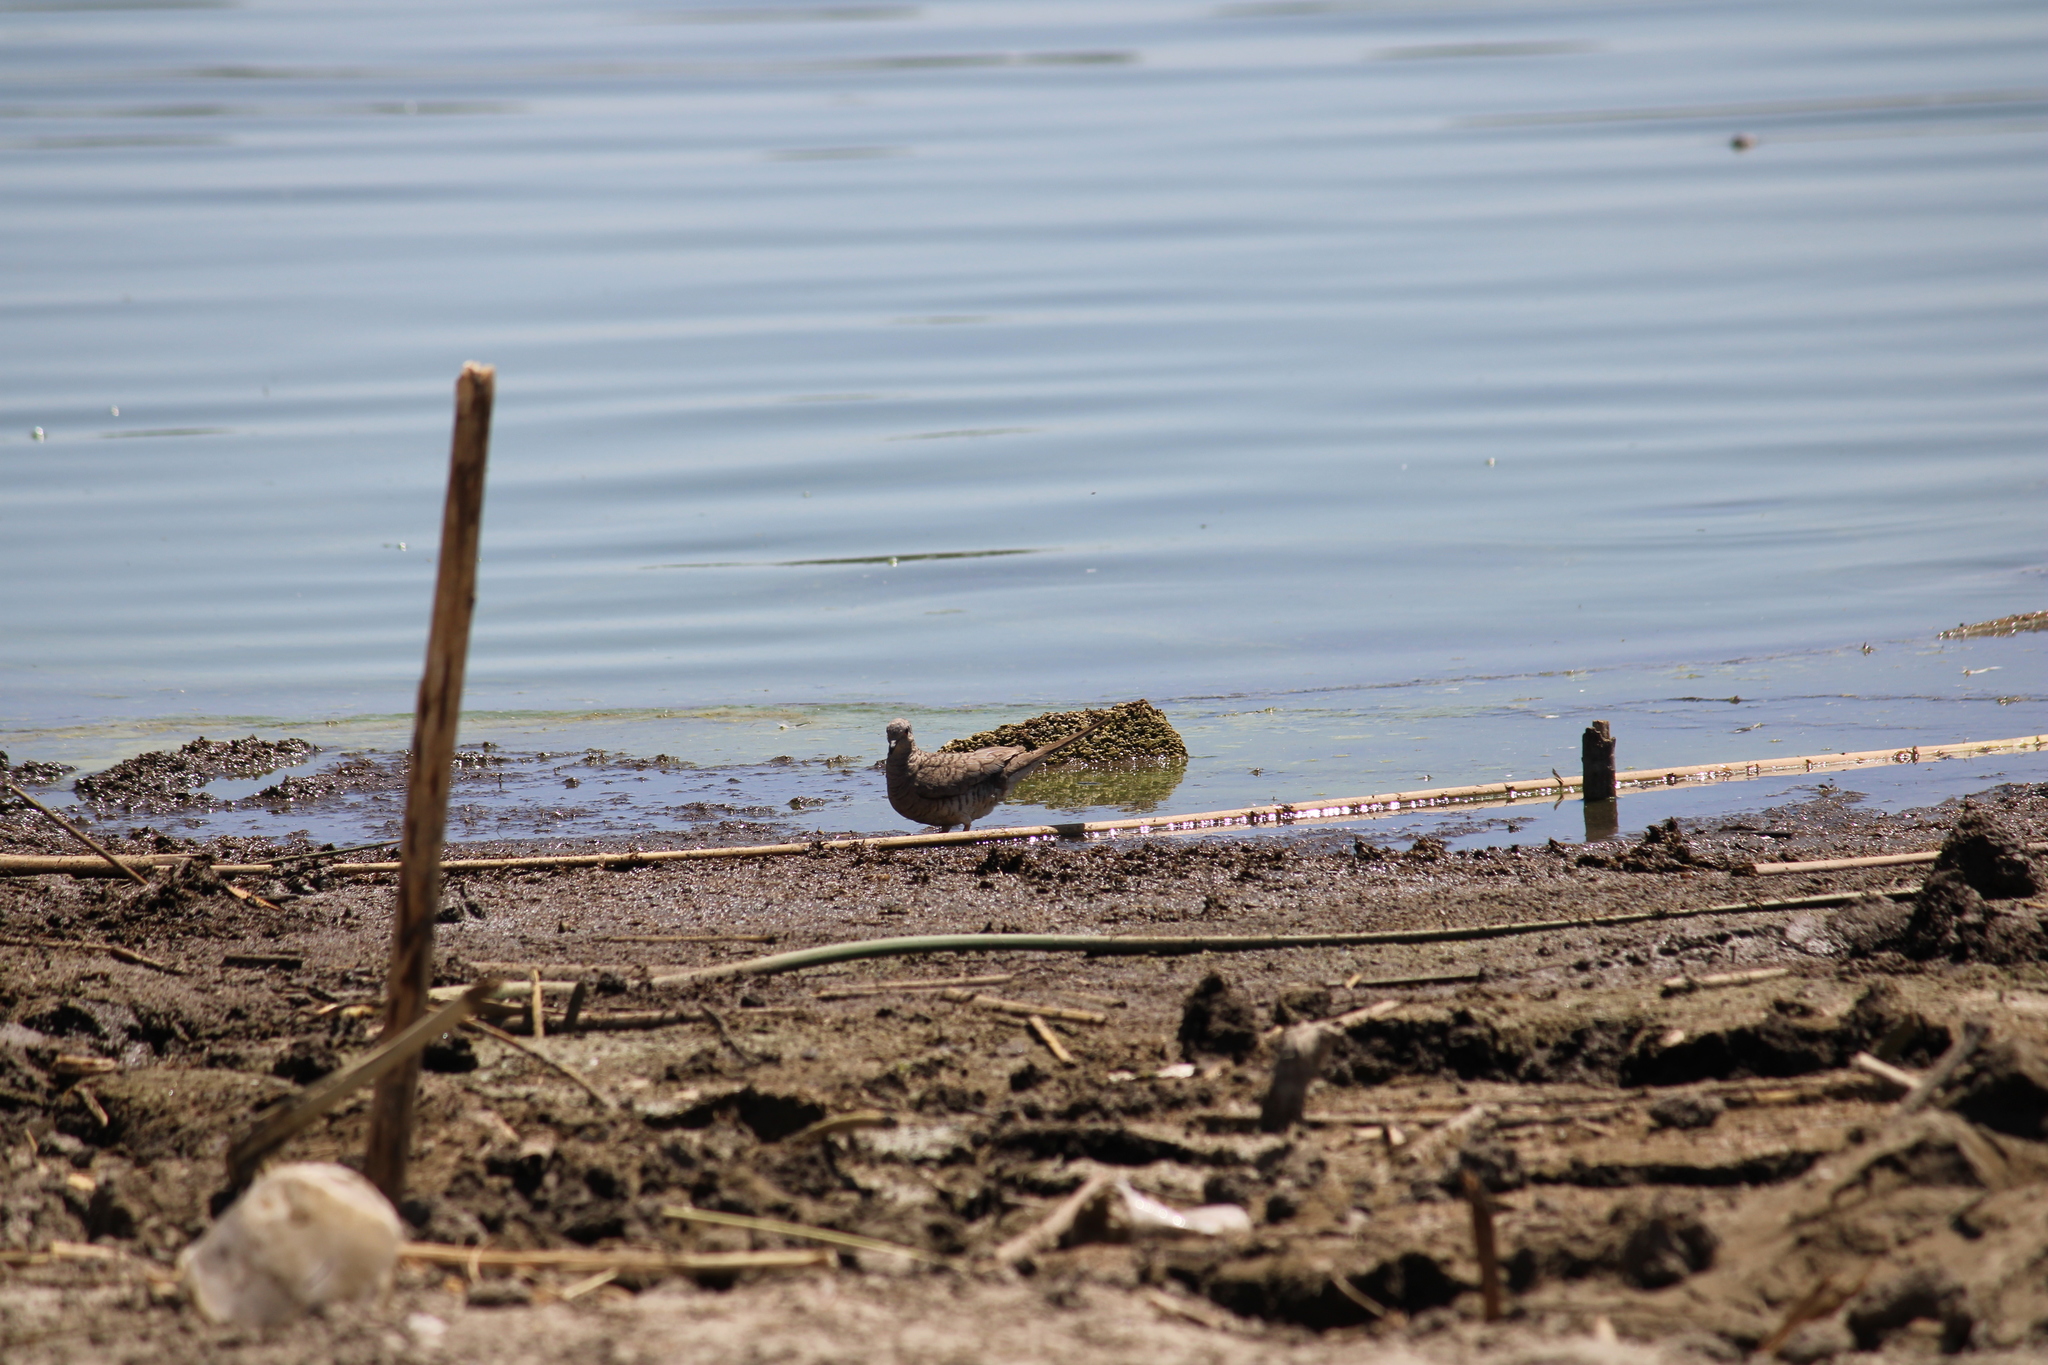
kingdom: Animalia
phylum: Chordata
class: Aves
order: Columbiformes
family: Columbidae
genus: Columbina
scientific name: Columbina inca
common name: Inca dove
